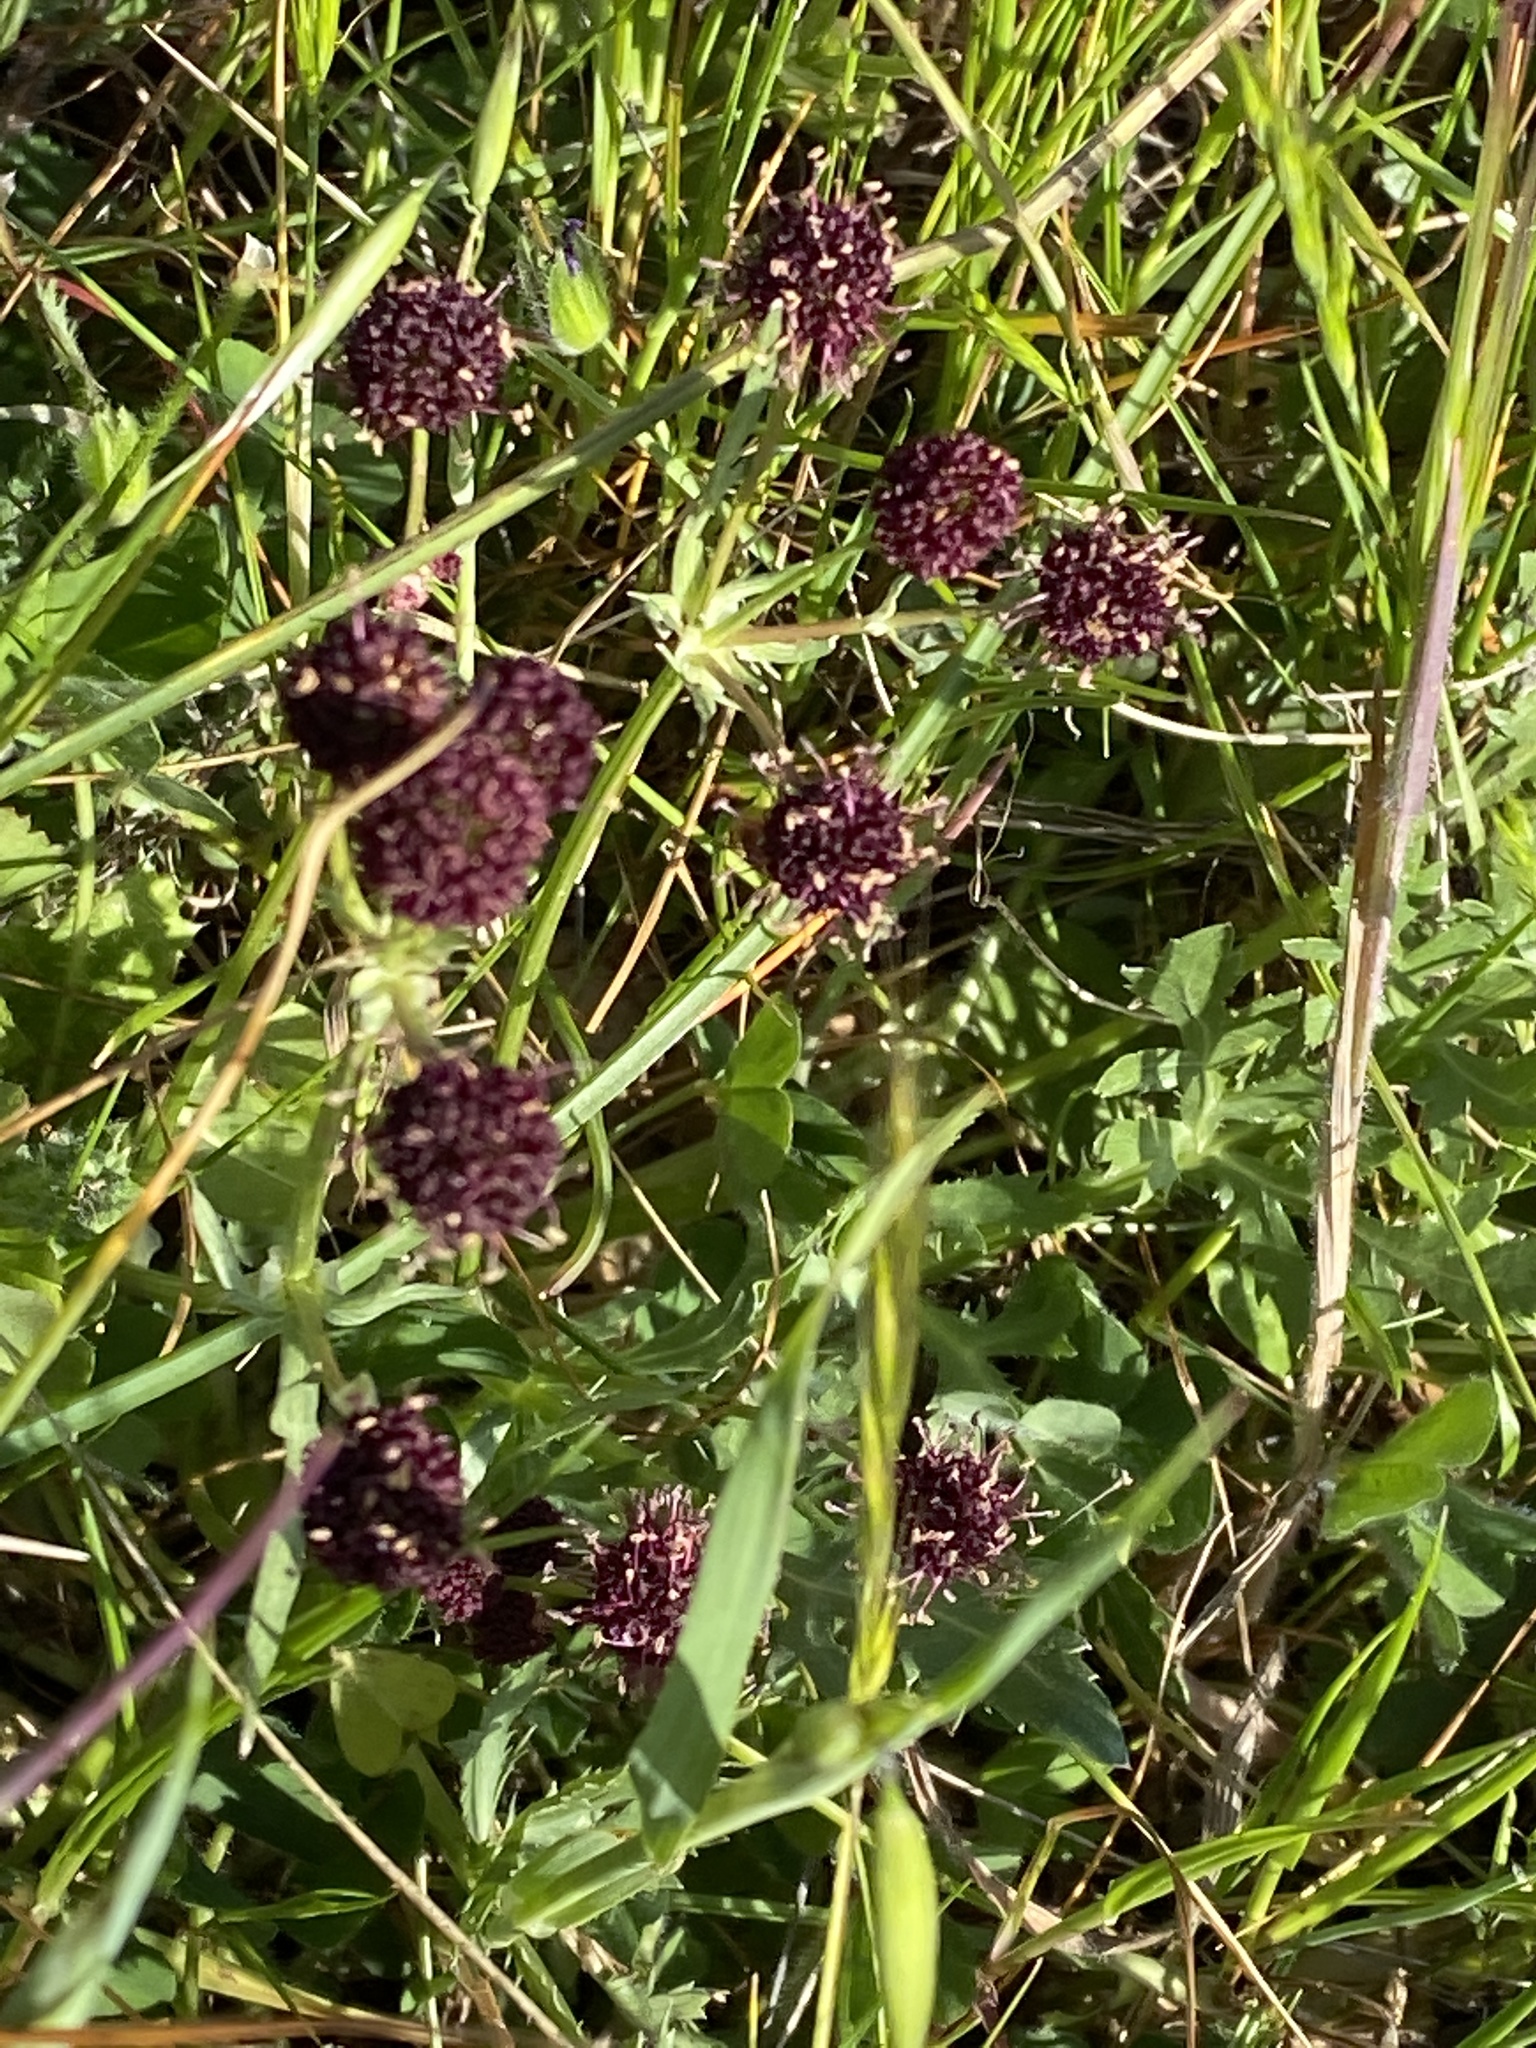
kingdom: Plantae
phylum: Tracheophyta
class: Magnoliopsida
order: Apiales
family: Apiaceae
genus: Sanicula
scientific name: Sanicula bipinnatifida
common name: Shoe-buttons
